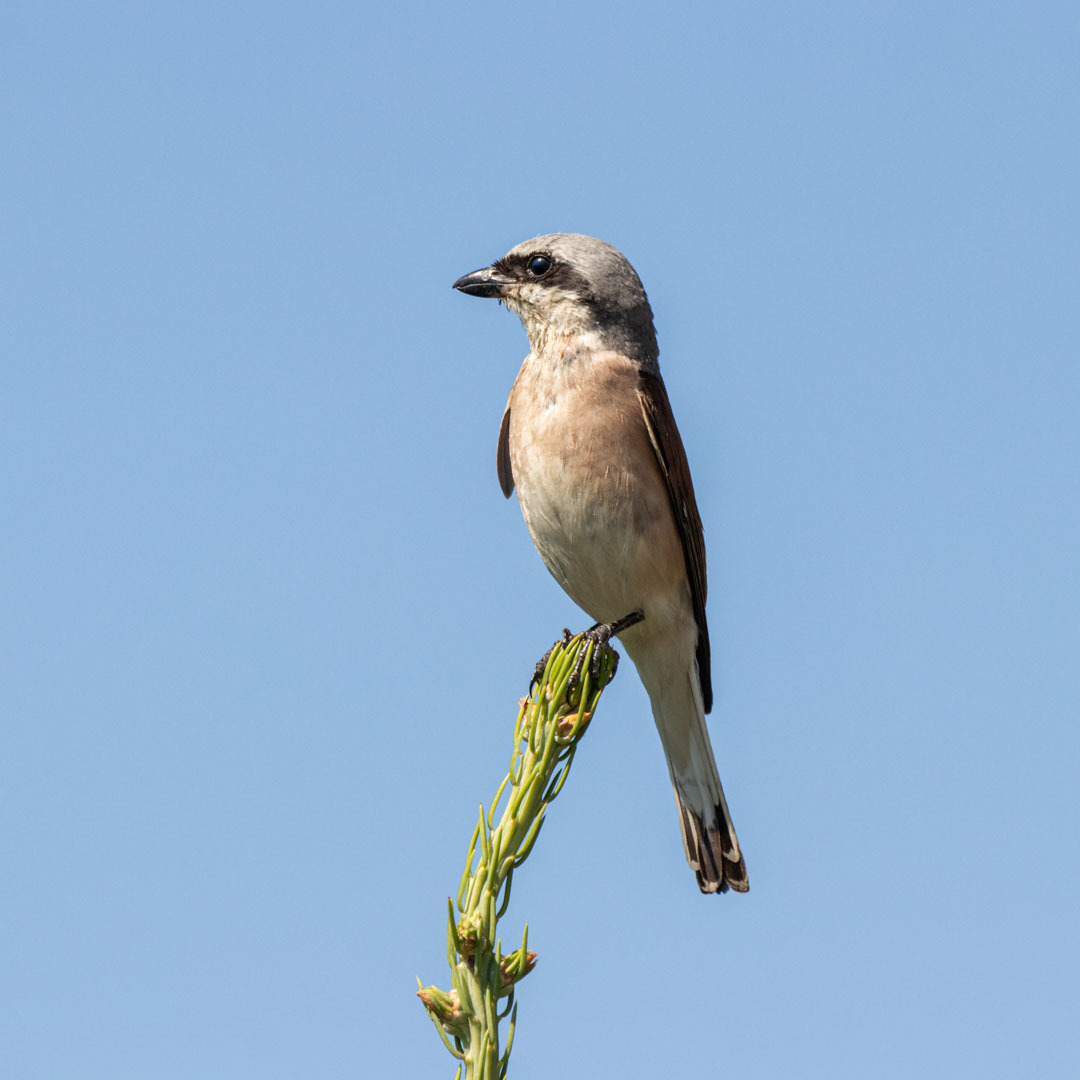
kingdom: Animalia
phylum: Chordata
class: Aves
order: Passeriformes
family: Laniidae
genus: Lanius
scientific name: Lanius collurio
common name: Red-backed shrike
